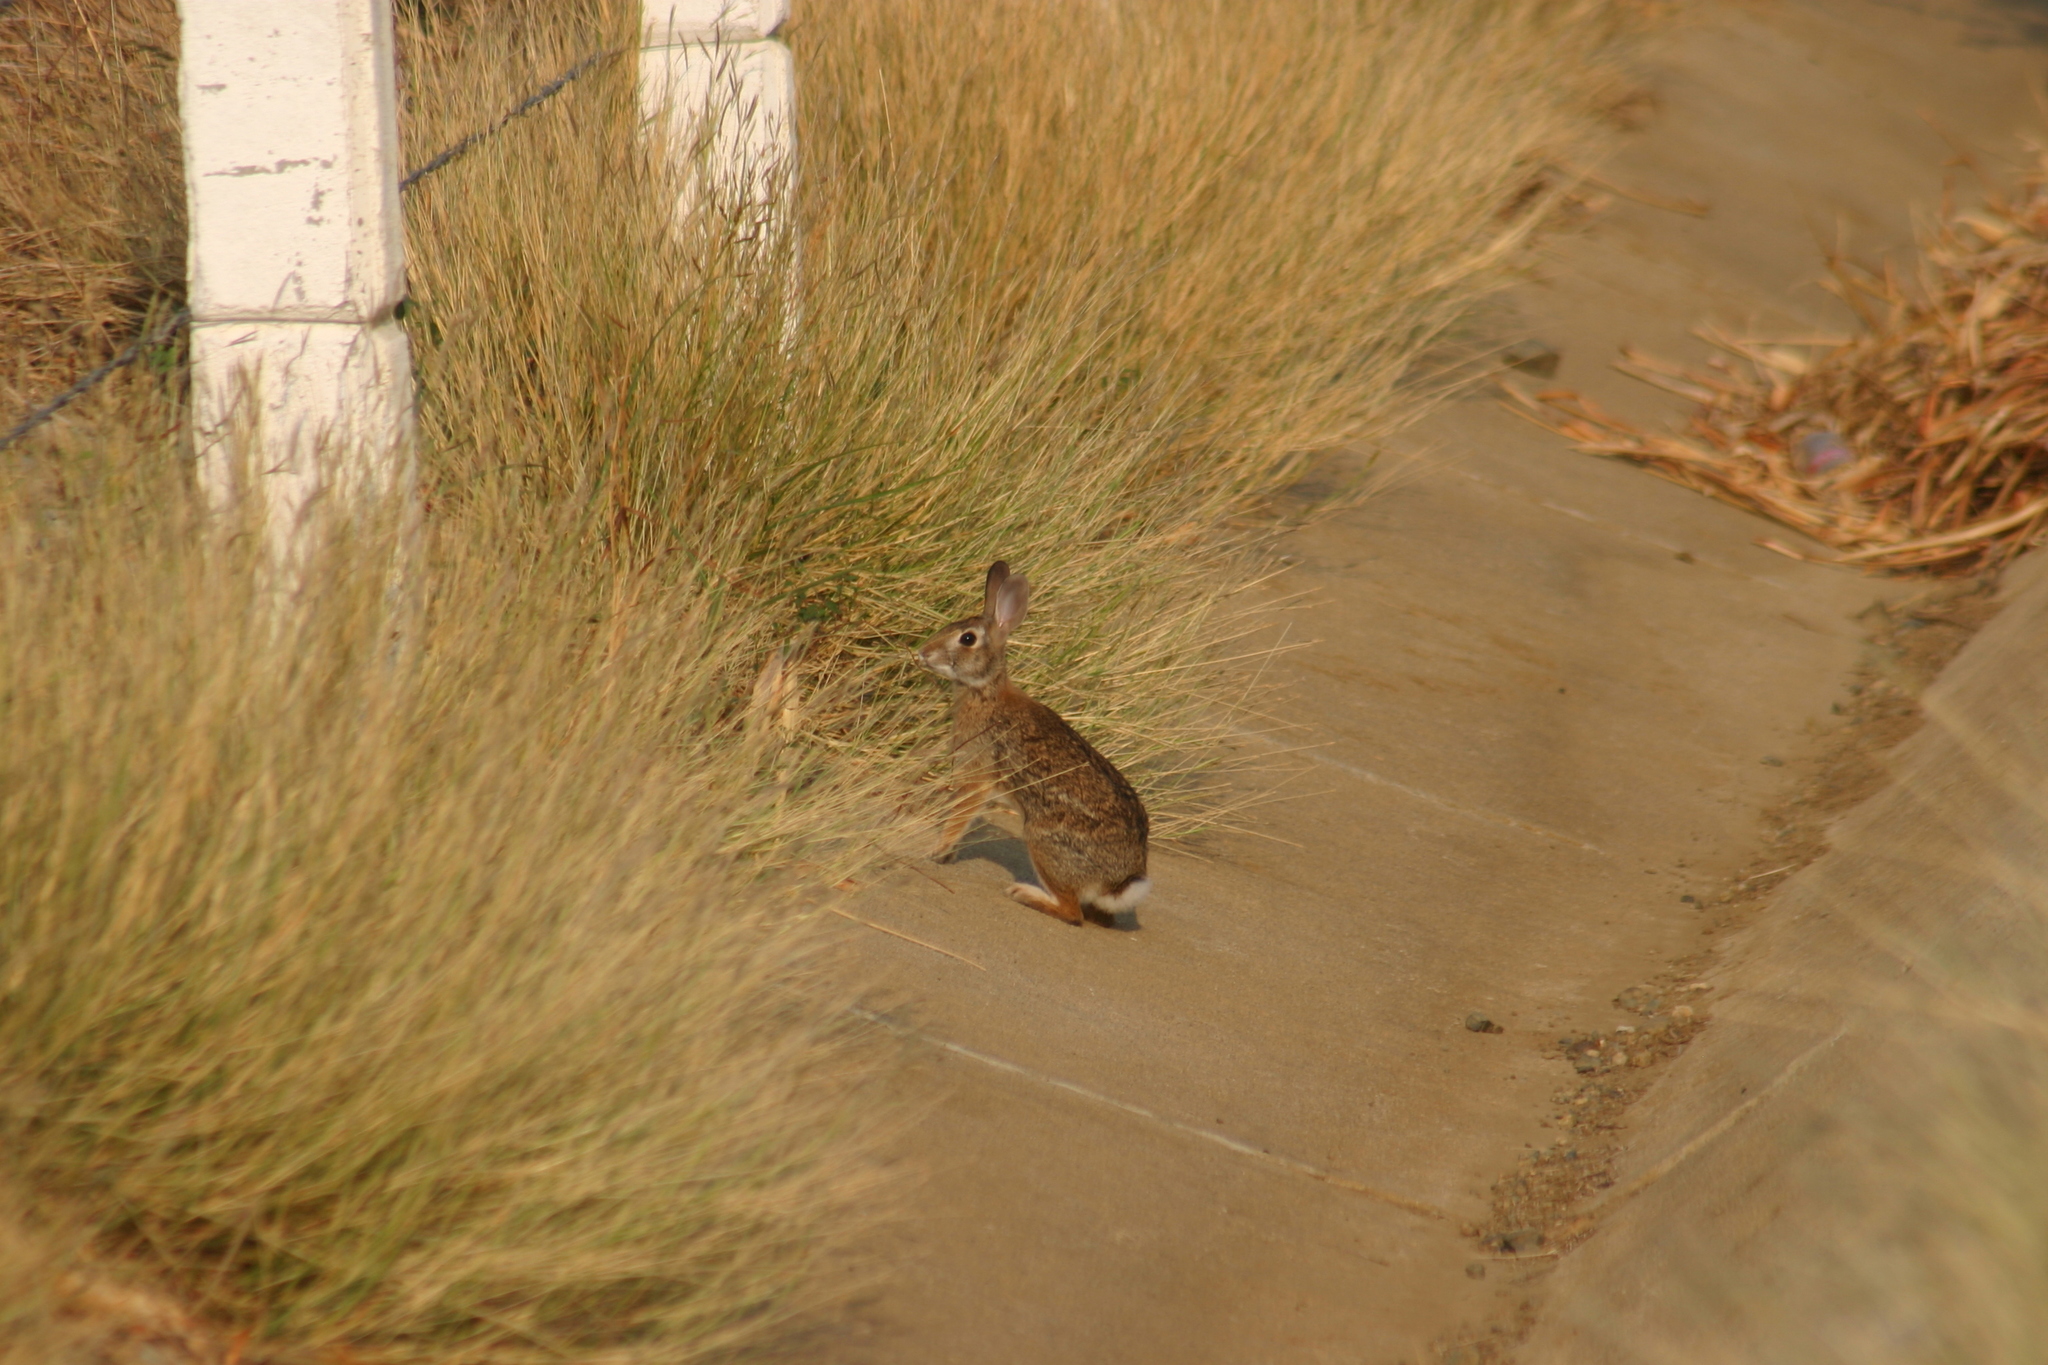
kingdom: Animalia
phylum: Chordata
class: Mammalia
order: Lagomorpha
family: Leporidae
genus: Sylvilagus
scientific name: Sylvilagus floridanus
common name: Eastern cottontail
